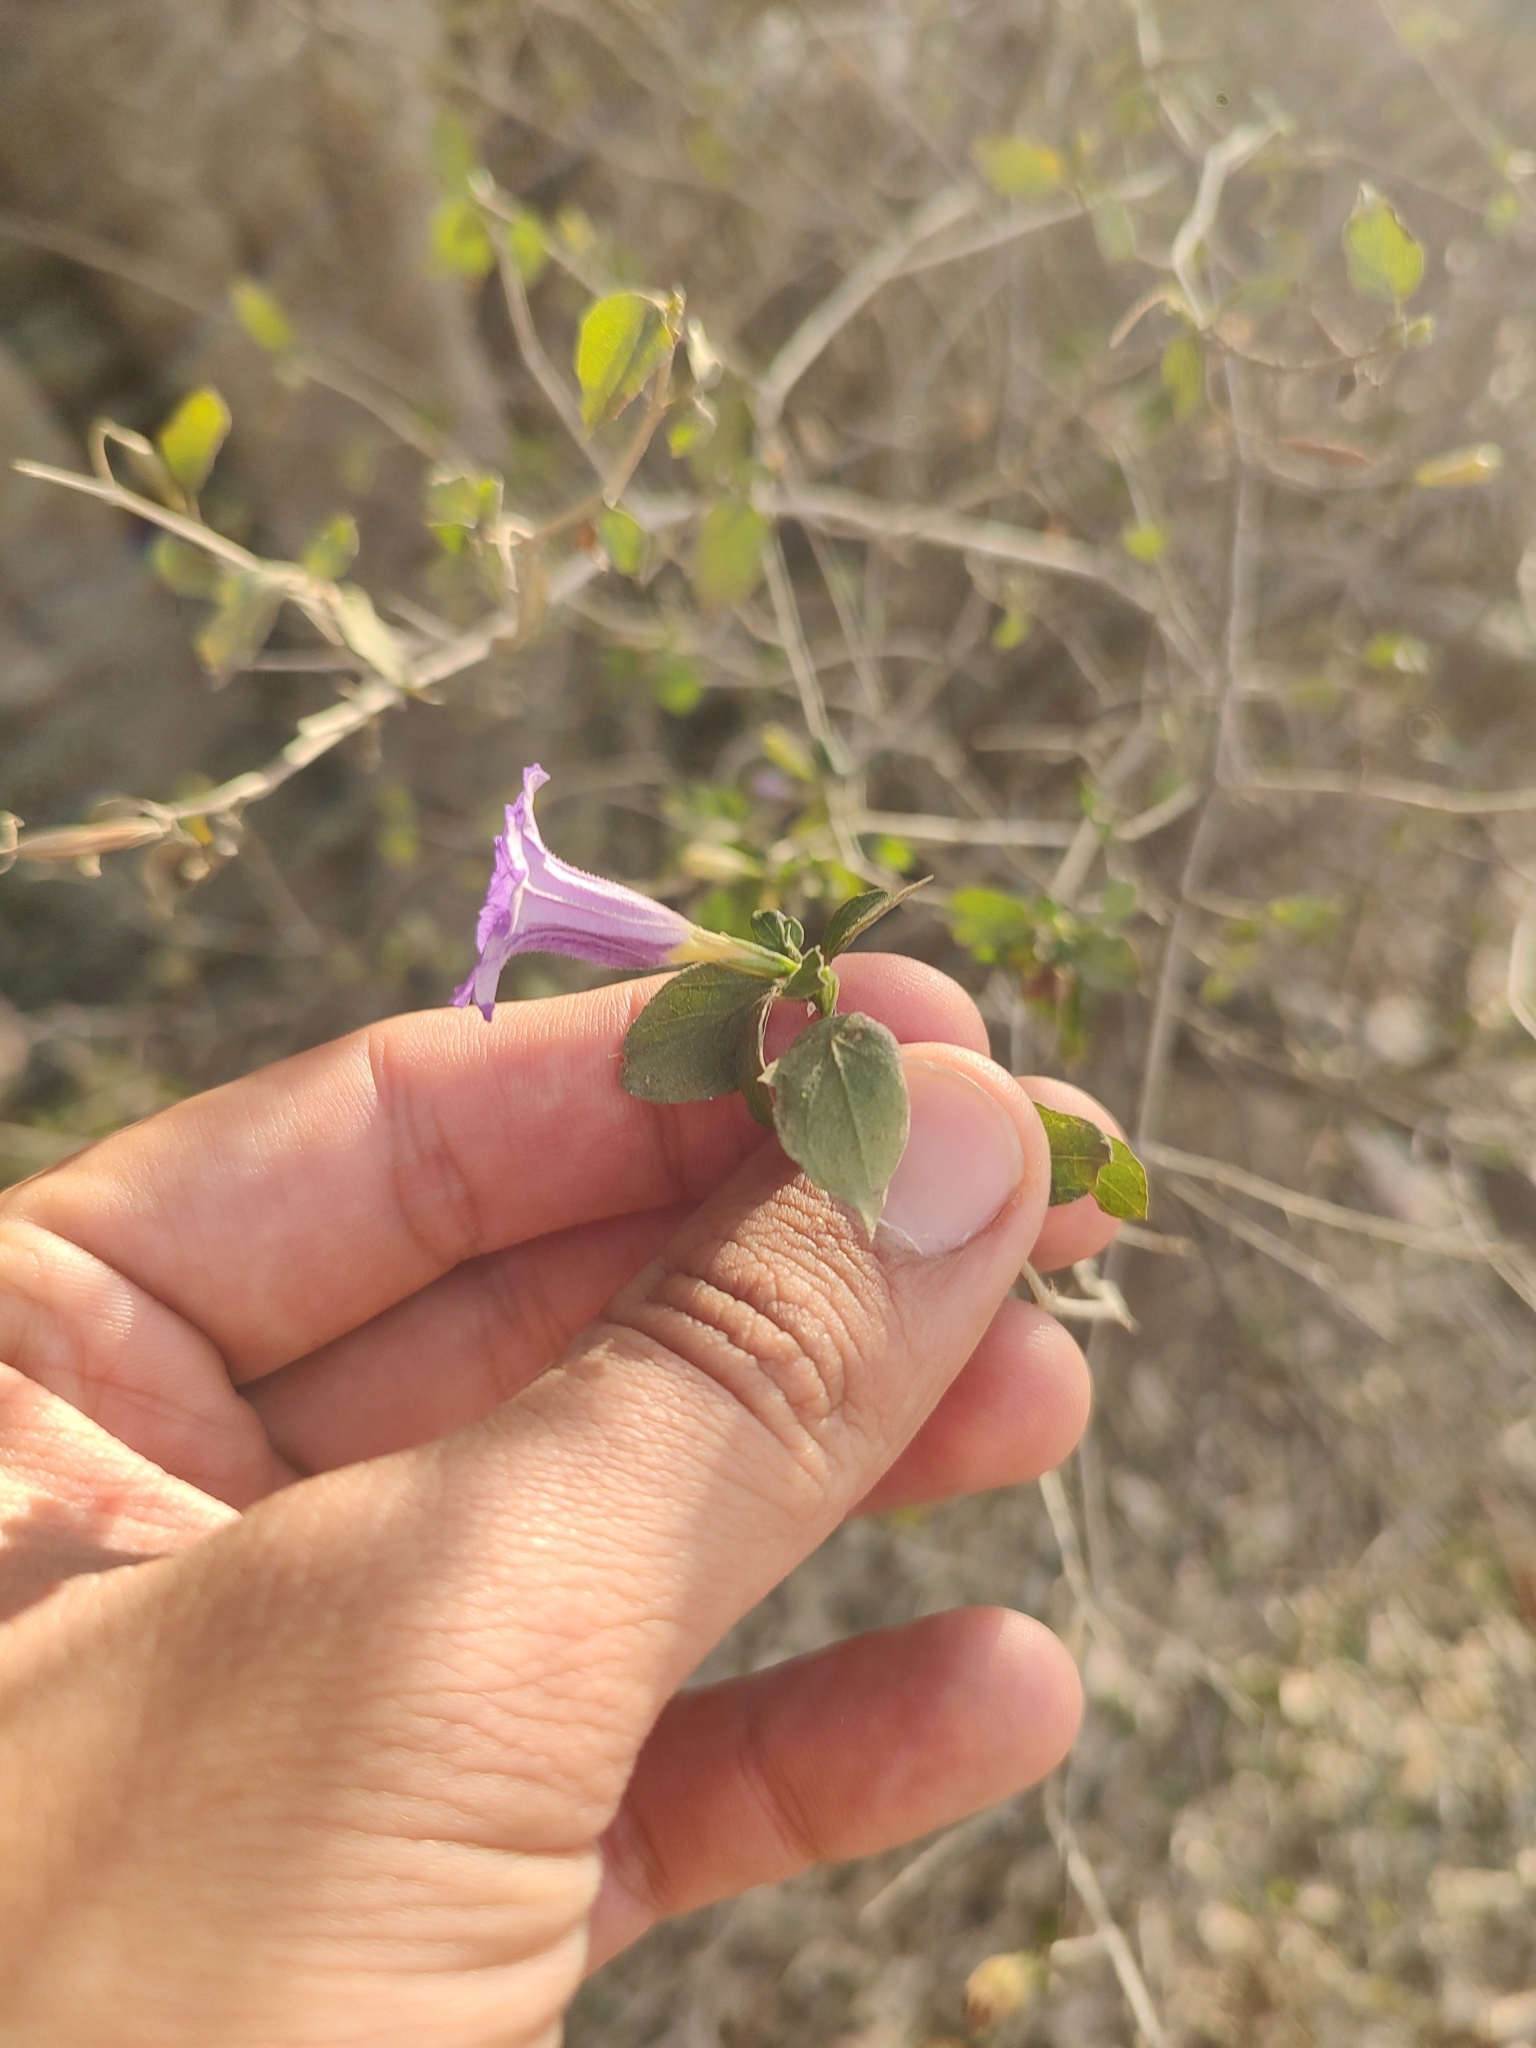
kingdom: Plantae
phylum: Tracheophyta
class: Magnoliopsida
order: Lamiales
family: Acanthaceae
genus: Ruellia
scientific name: Ruellia californica
